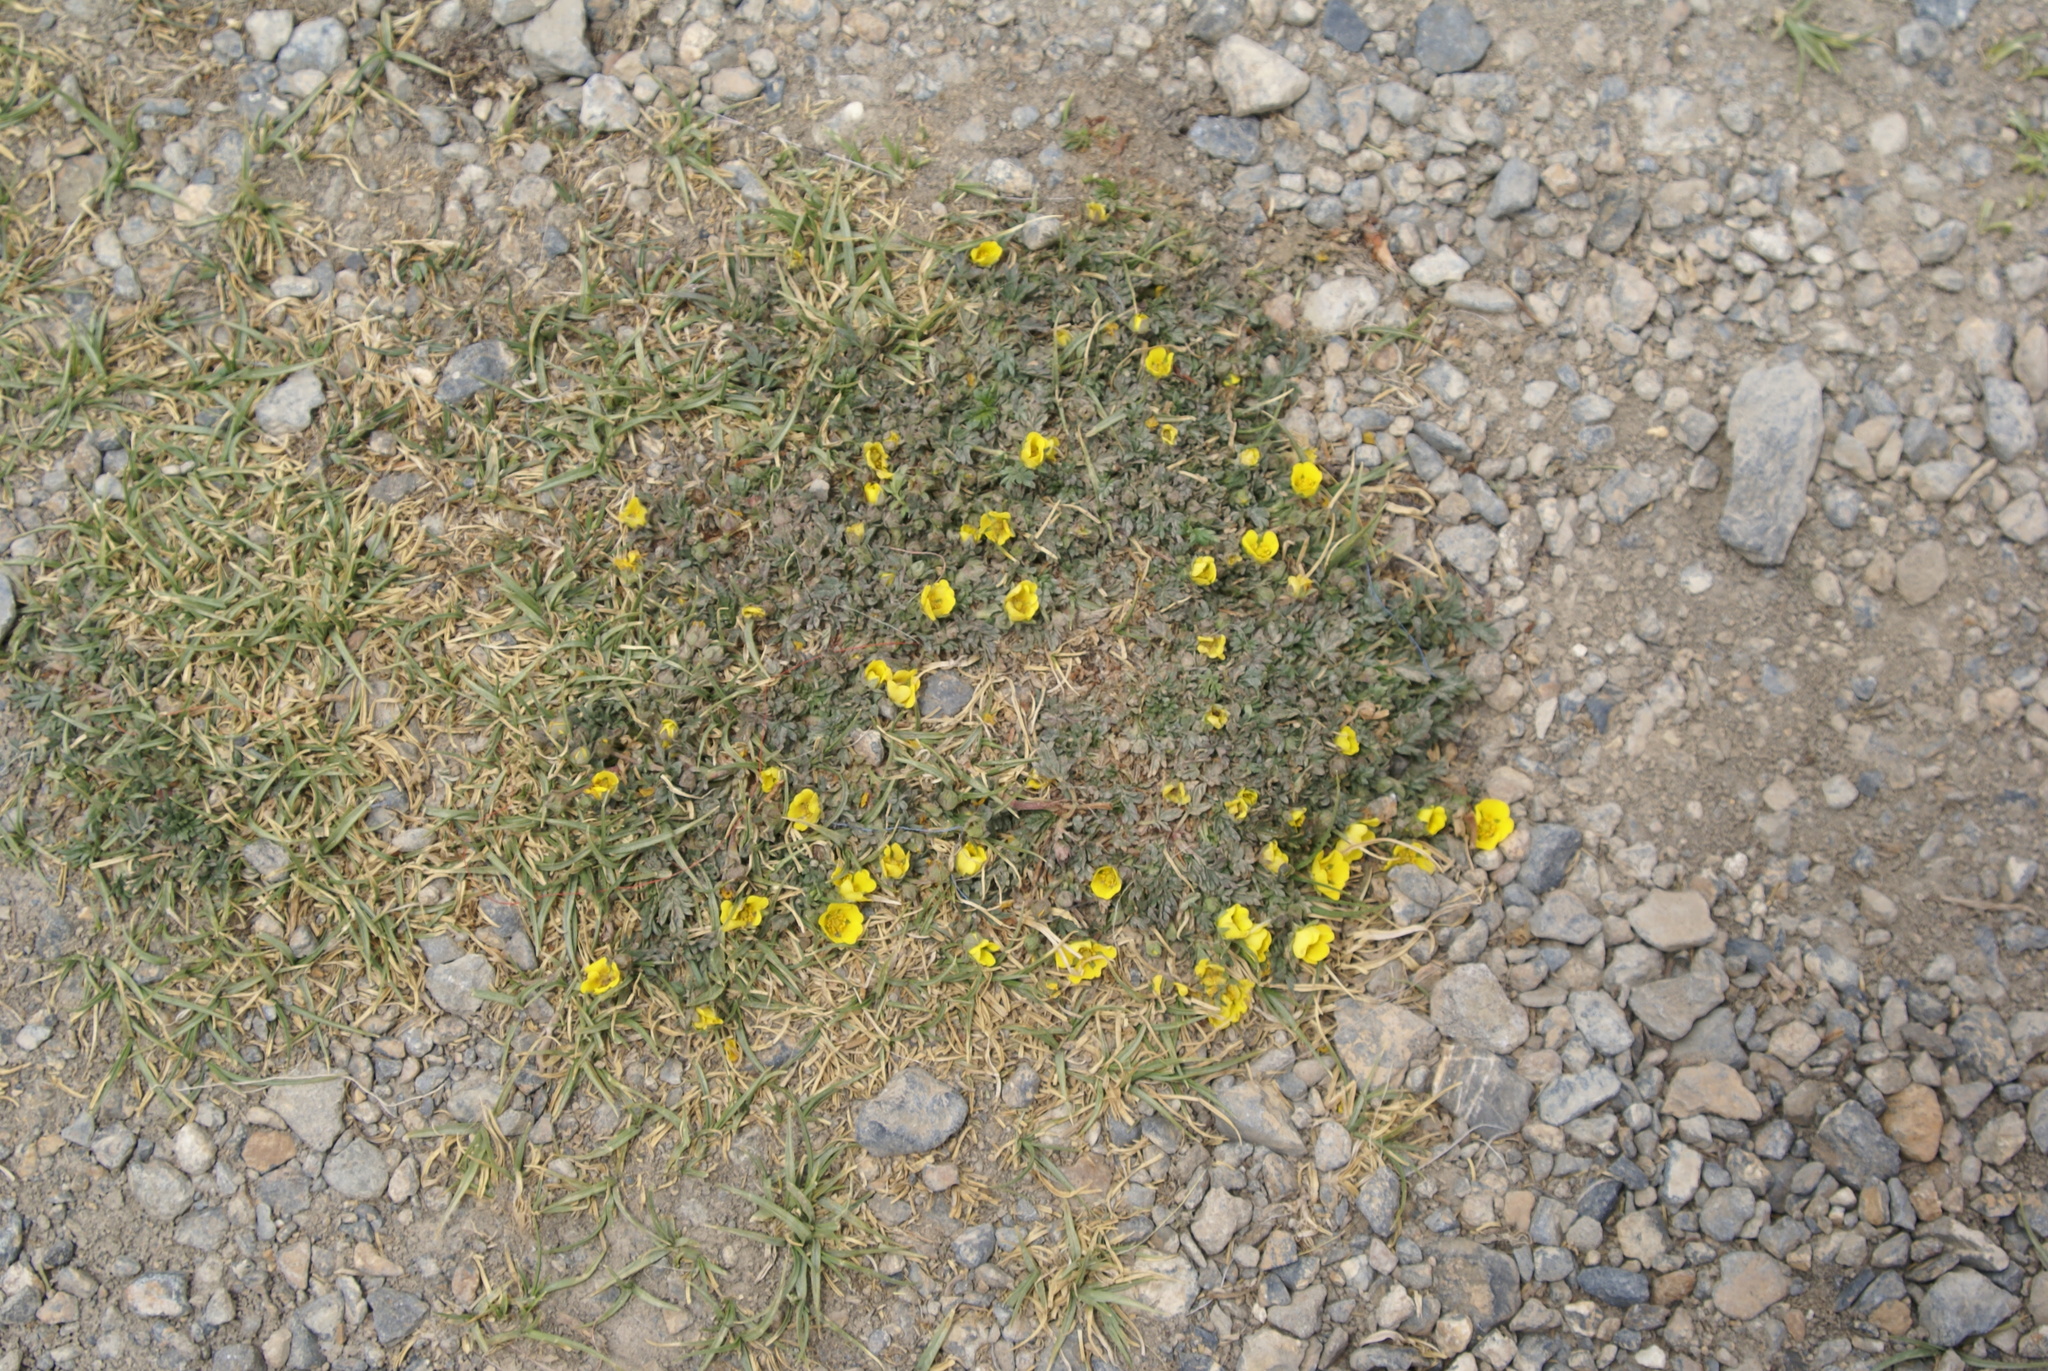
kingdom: Plantae
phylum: Tracheophyta
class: Magnoliopsida
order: Rosales
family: Rosaceae
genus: Potentilla
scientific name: Potentilla pamirica
